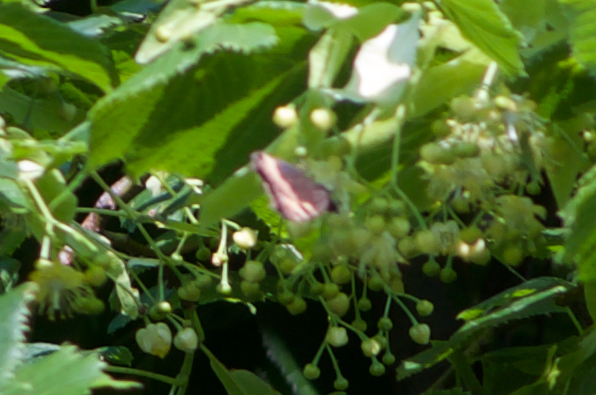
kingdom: Animalia
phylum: Arthropoda
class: Insecta
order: Lepidoptera
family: Nymphalidae
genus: Aglais
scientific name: Aglais urticae
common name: Small tortoiseshell
